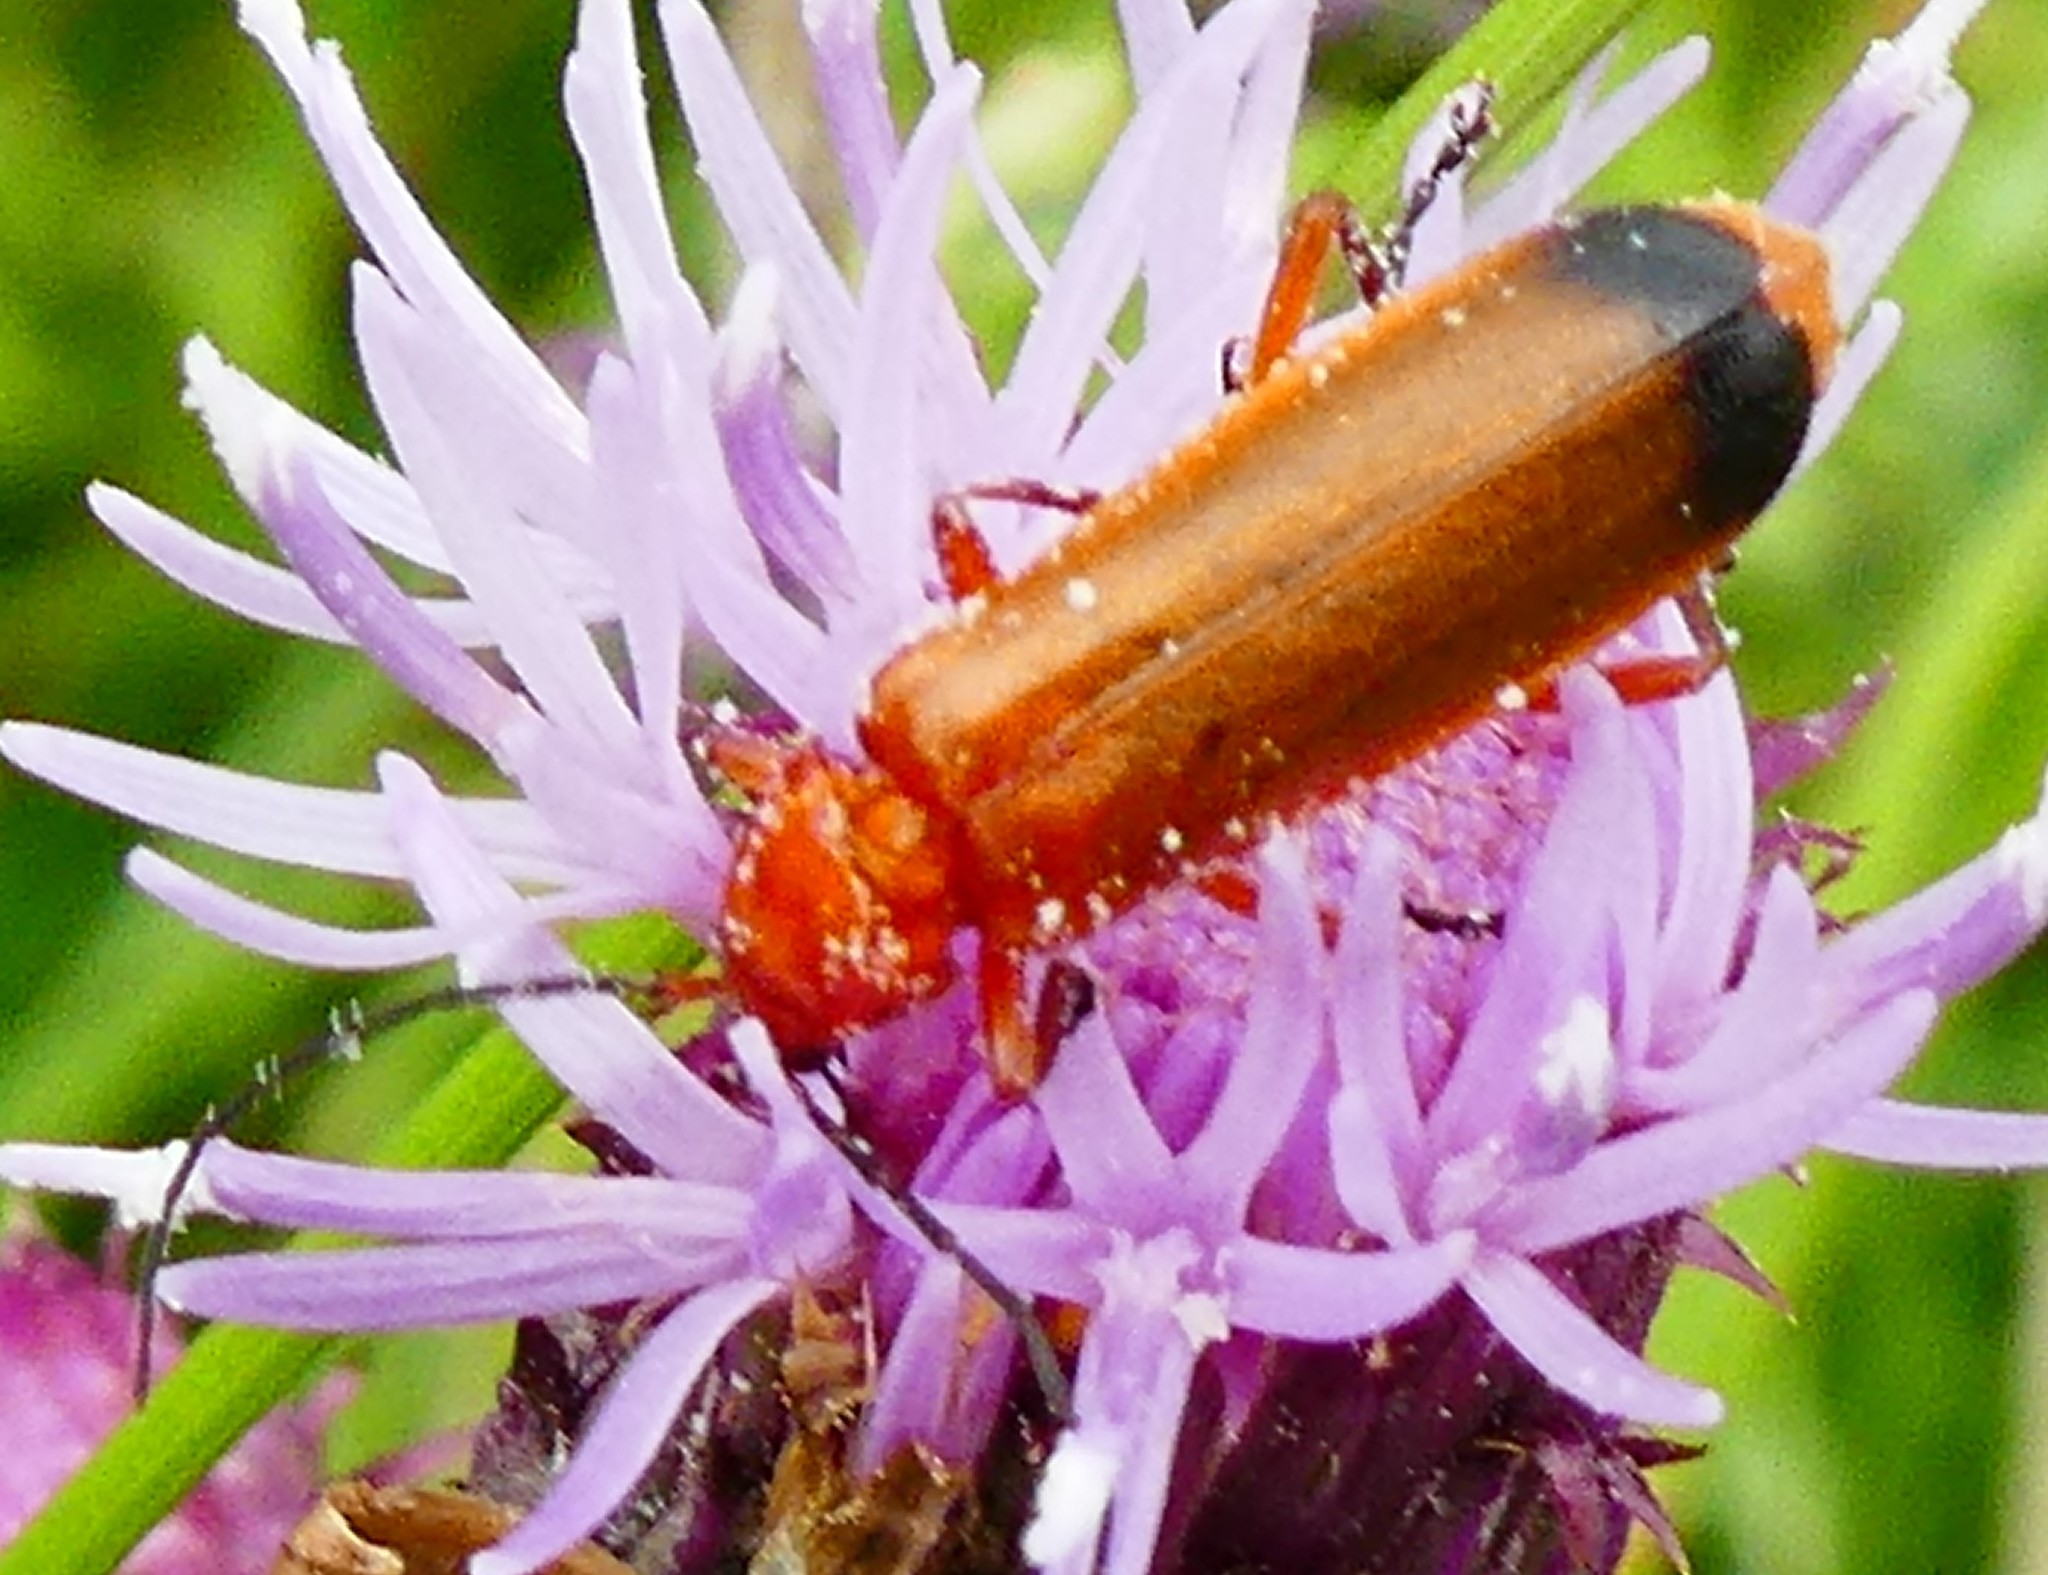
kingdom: Animalia
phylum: Arthropoda
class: Insecta
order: Coleoptera
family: Cantharidae
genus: Rhagonycha
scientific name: Rhagonycha fulva
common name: Common red soldier beetle
